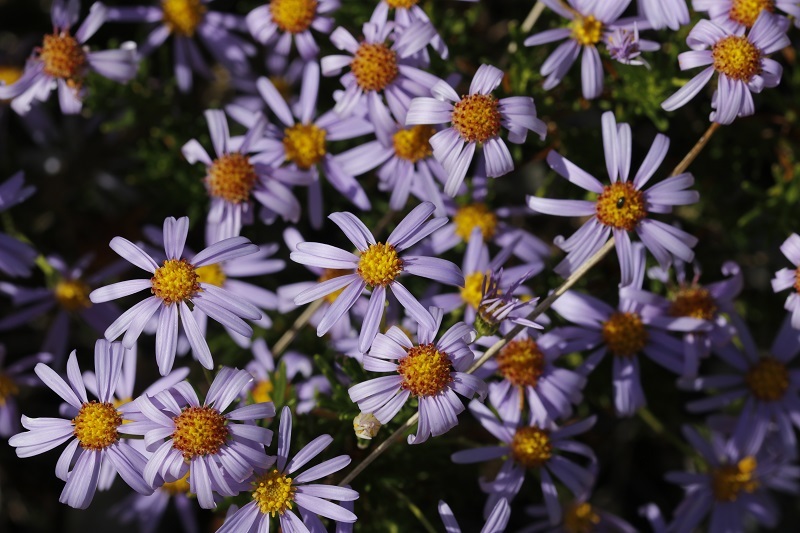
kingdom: Plantae
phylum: Tracheophyta
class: Magnoliopsida
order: Asterales
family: Asteraceae
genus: Felicia
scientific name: Felicia filifolia
